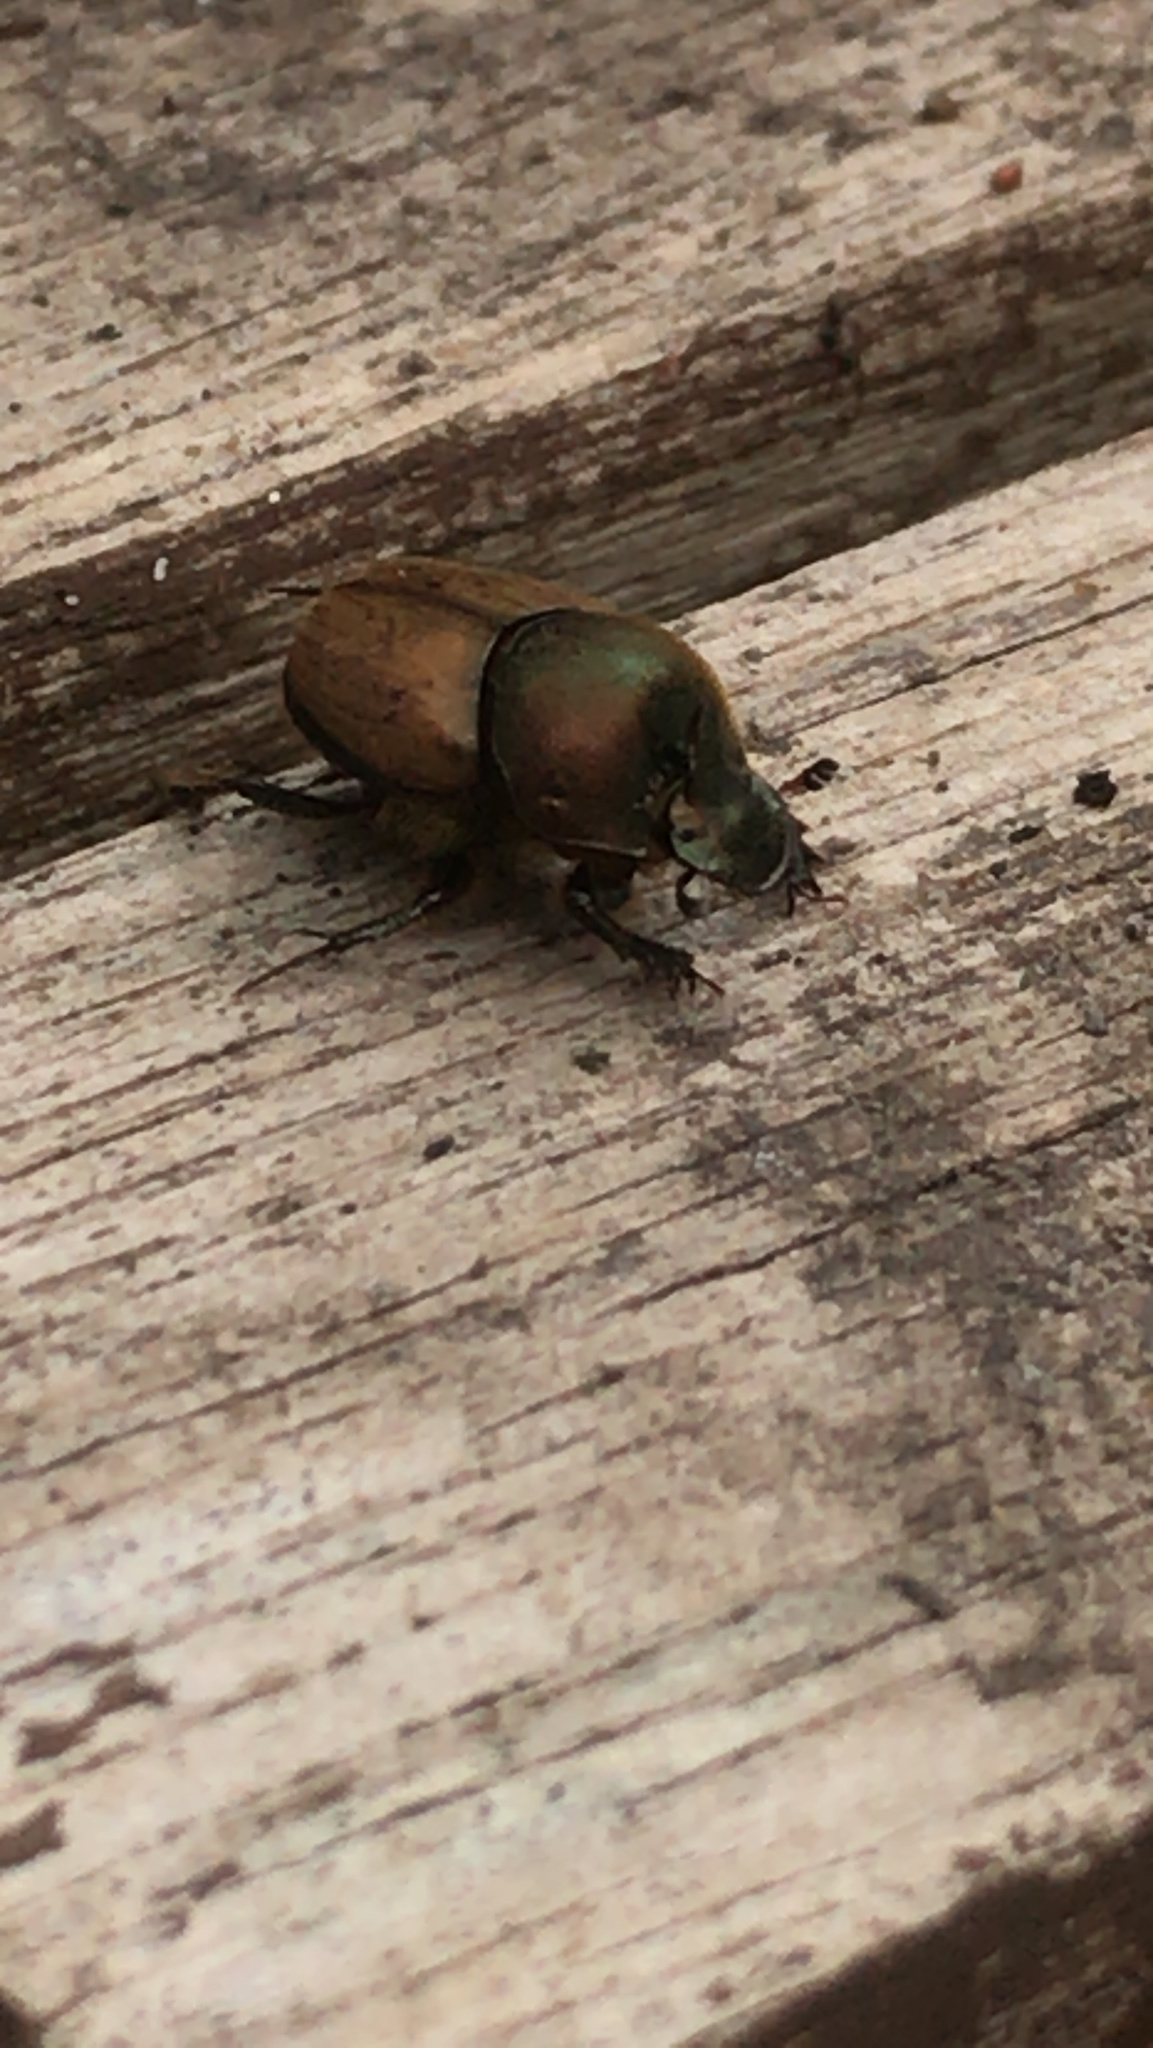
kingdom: Animalia
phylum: Arthropoda
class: Insecta
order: Coleoptera
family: Scarabaeidae
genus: Onthophagus
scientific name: Onthophagus coenobita
